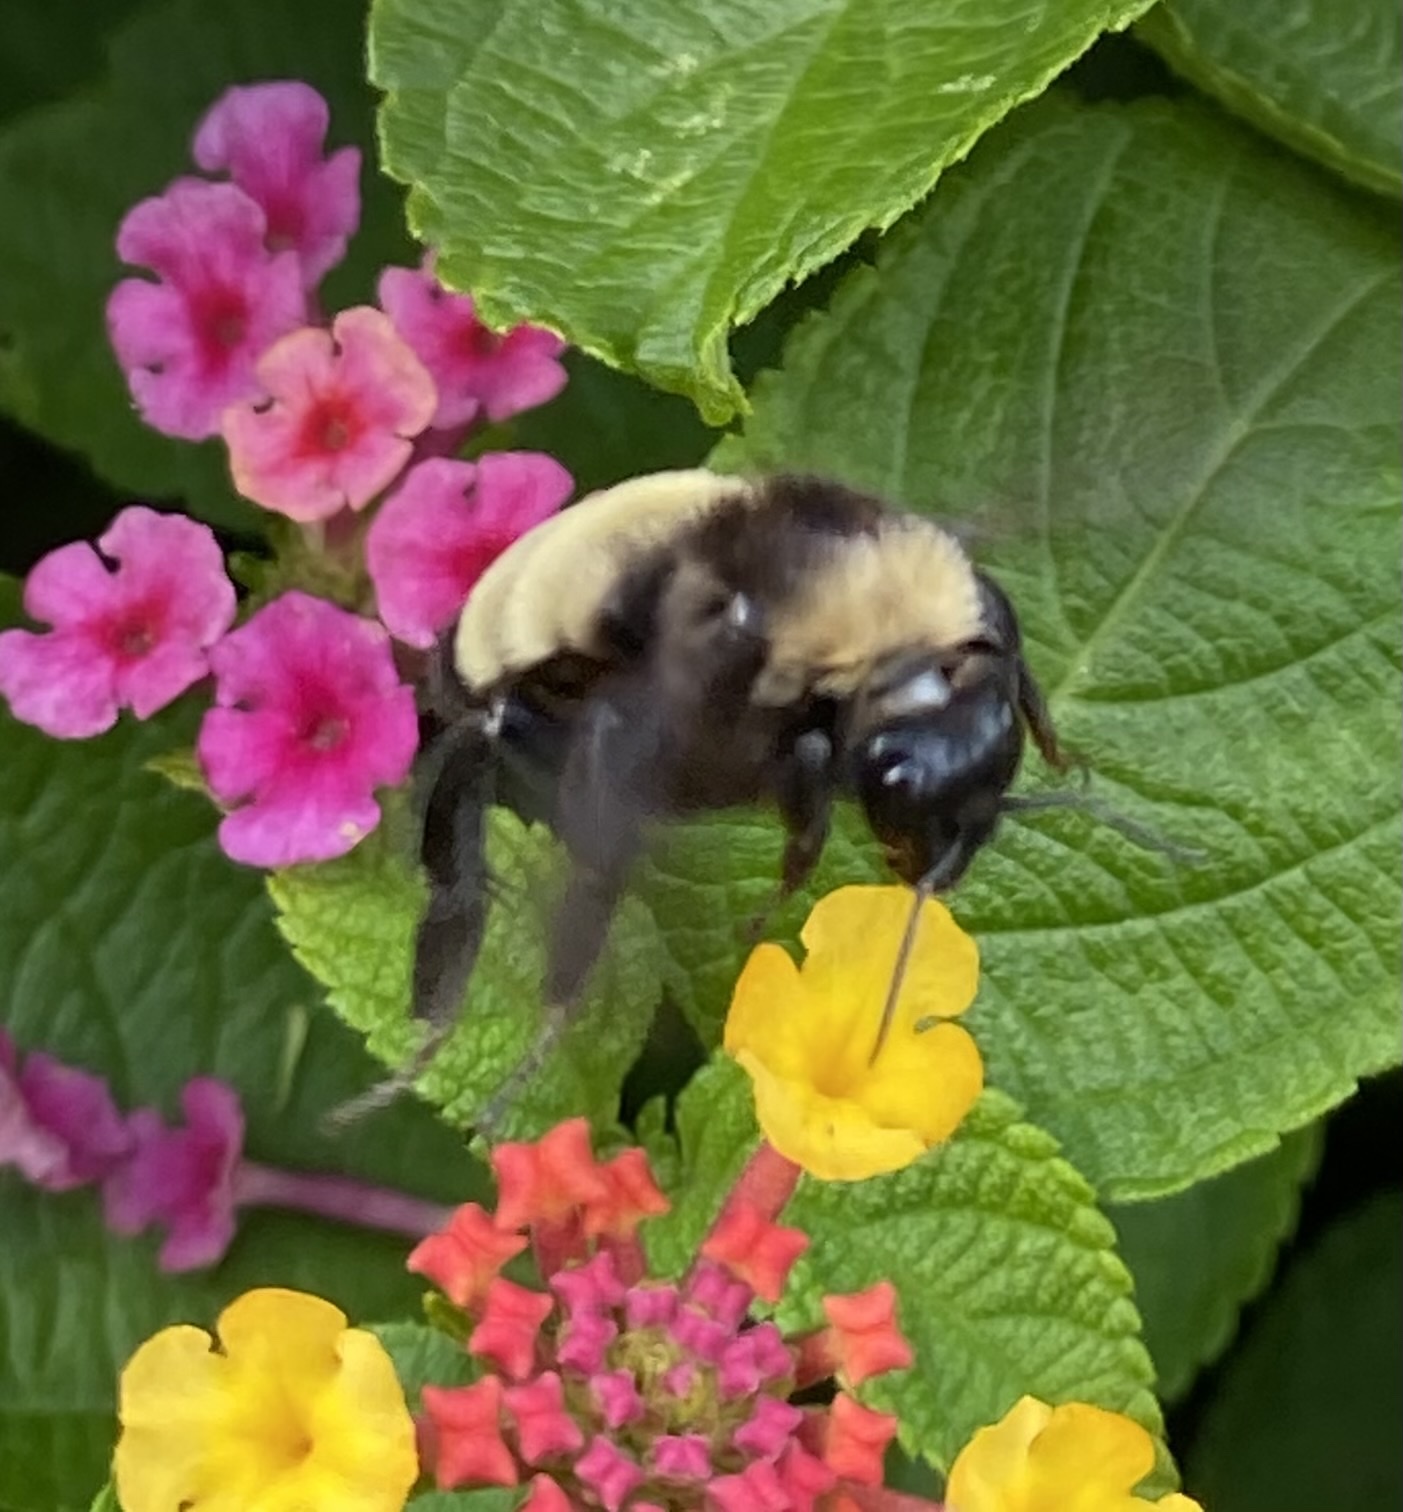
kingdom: Animalia
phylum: Arthropoda
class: Insecta
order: Hymenoptera
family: Apidae
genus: Bombus
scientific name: Bombus pensylvanicus
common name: Bumble bee
